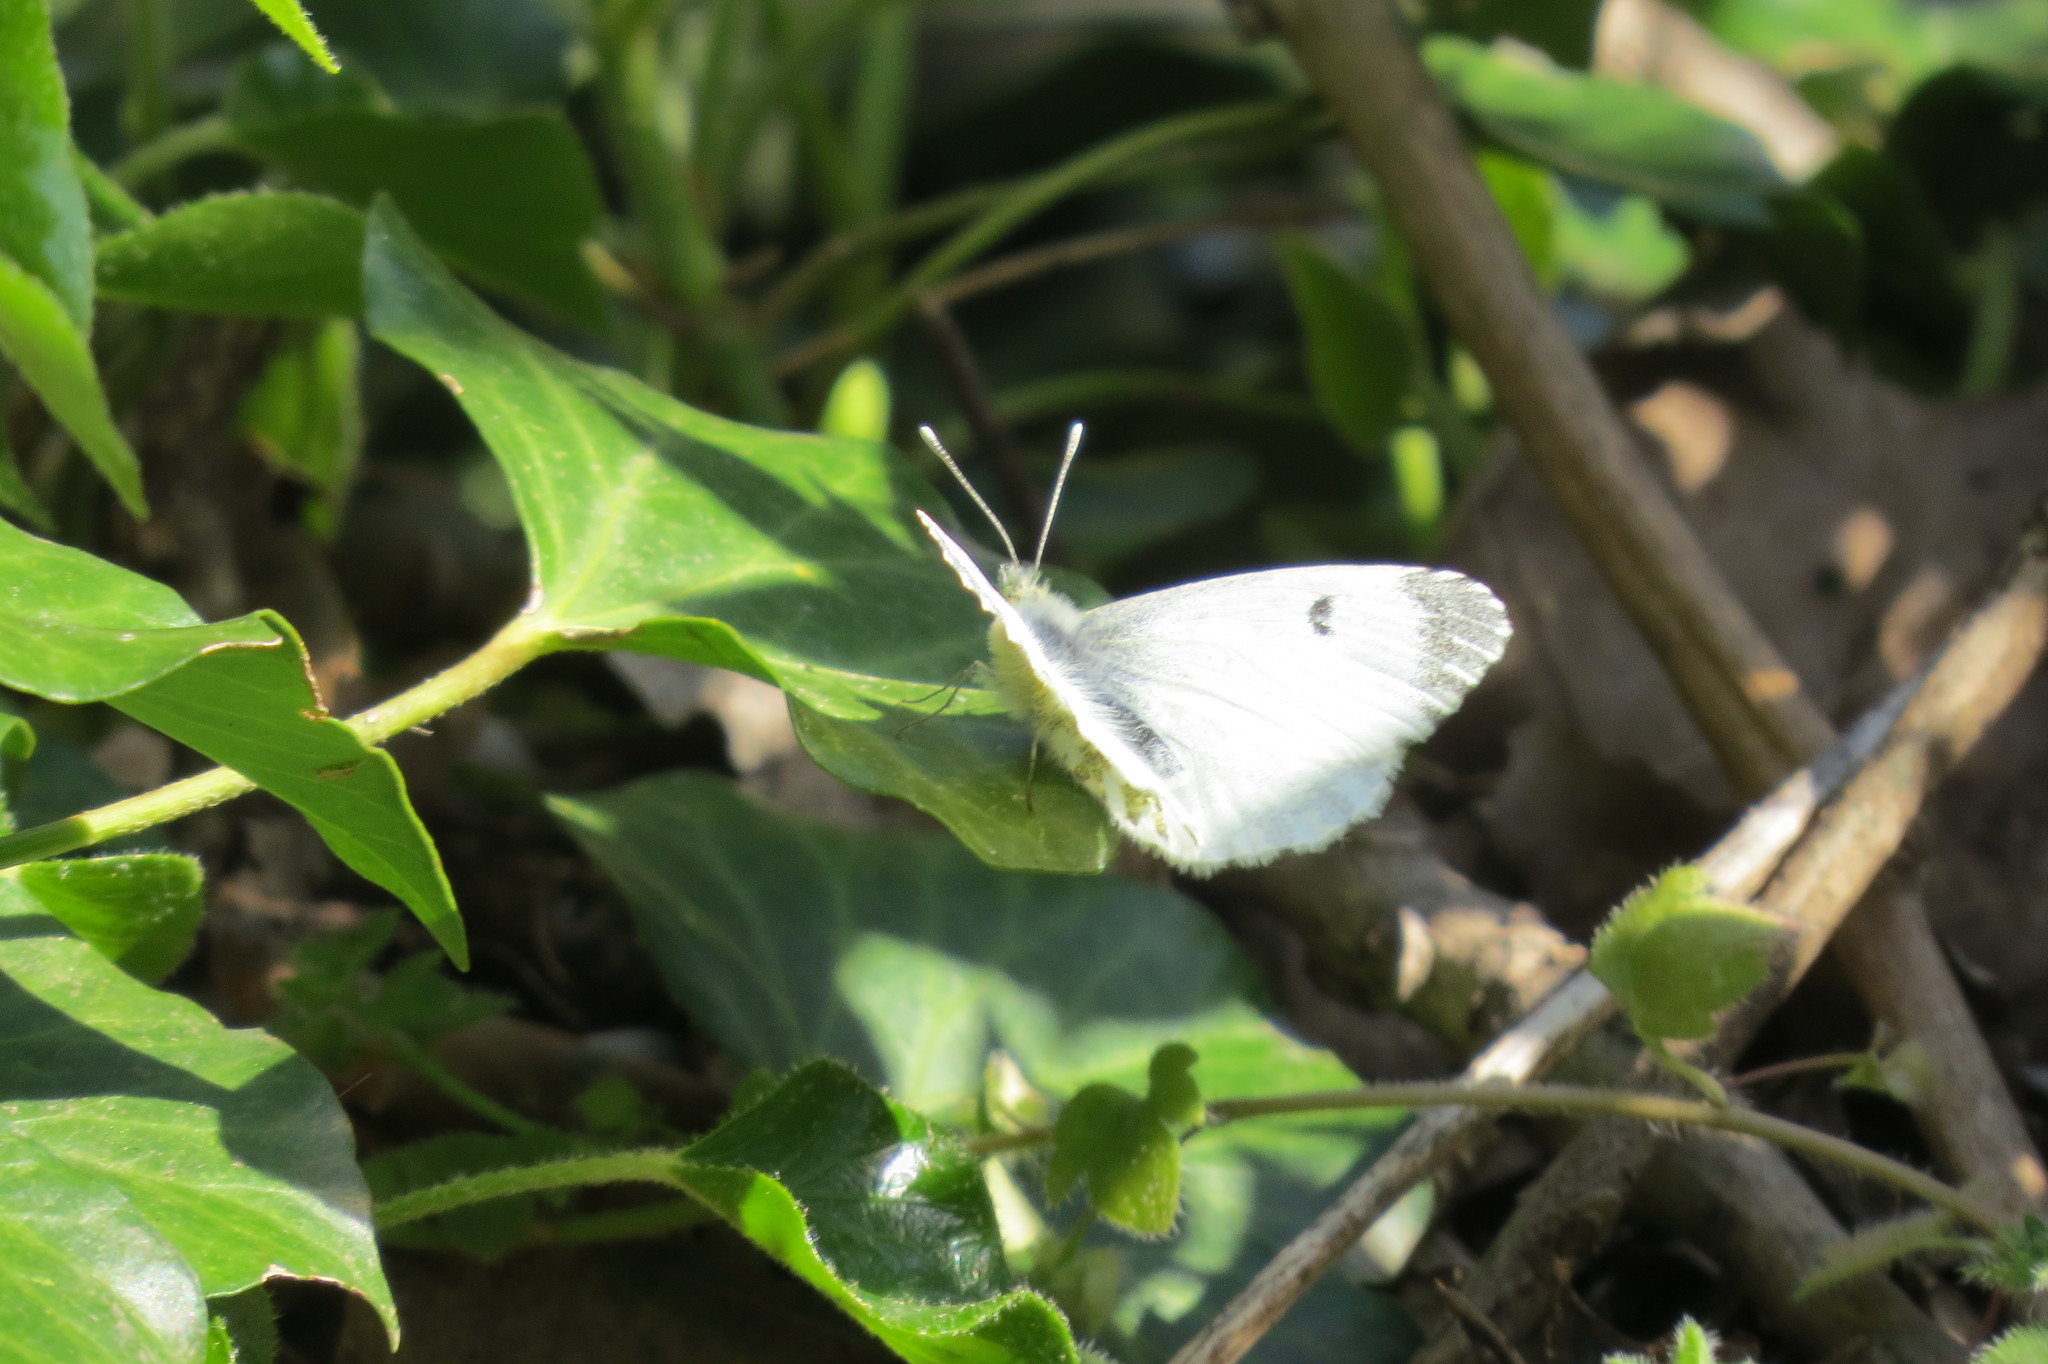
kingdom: Animalia
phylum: Arthropoda
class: Insecta
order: Lepidoptera
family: Pieridae
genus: Anthocharis
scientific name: Anthocharis cardamines
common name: Orange-tip
